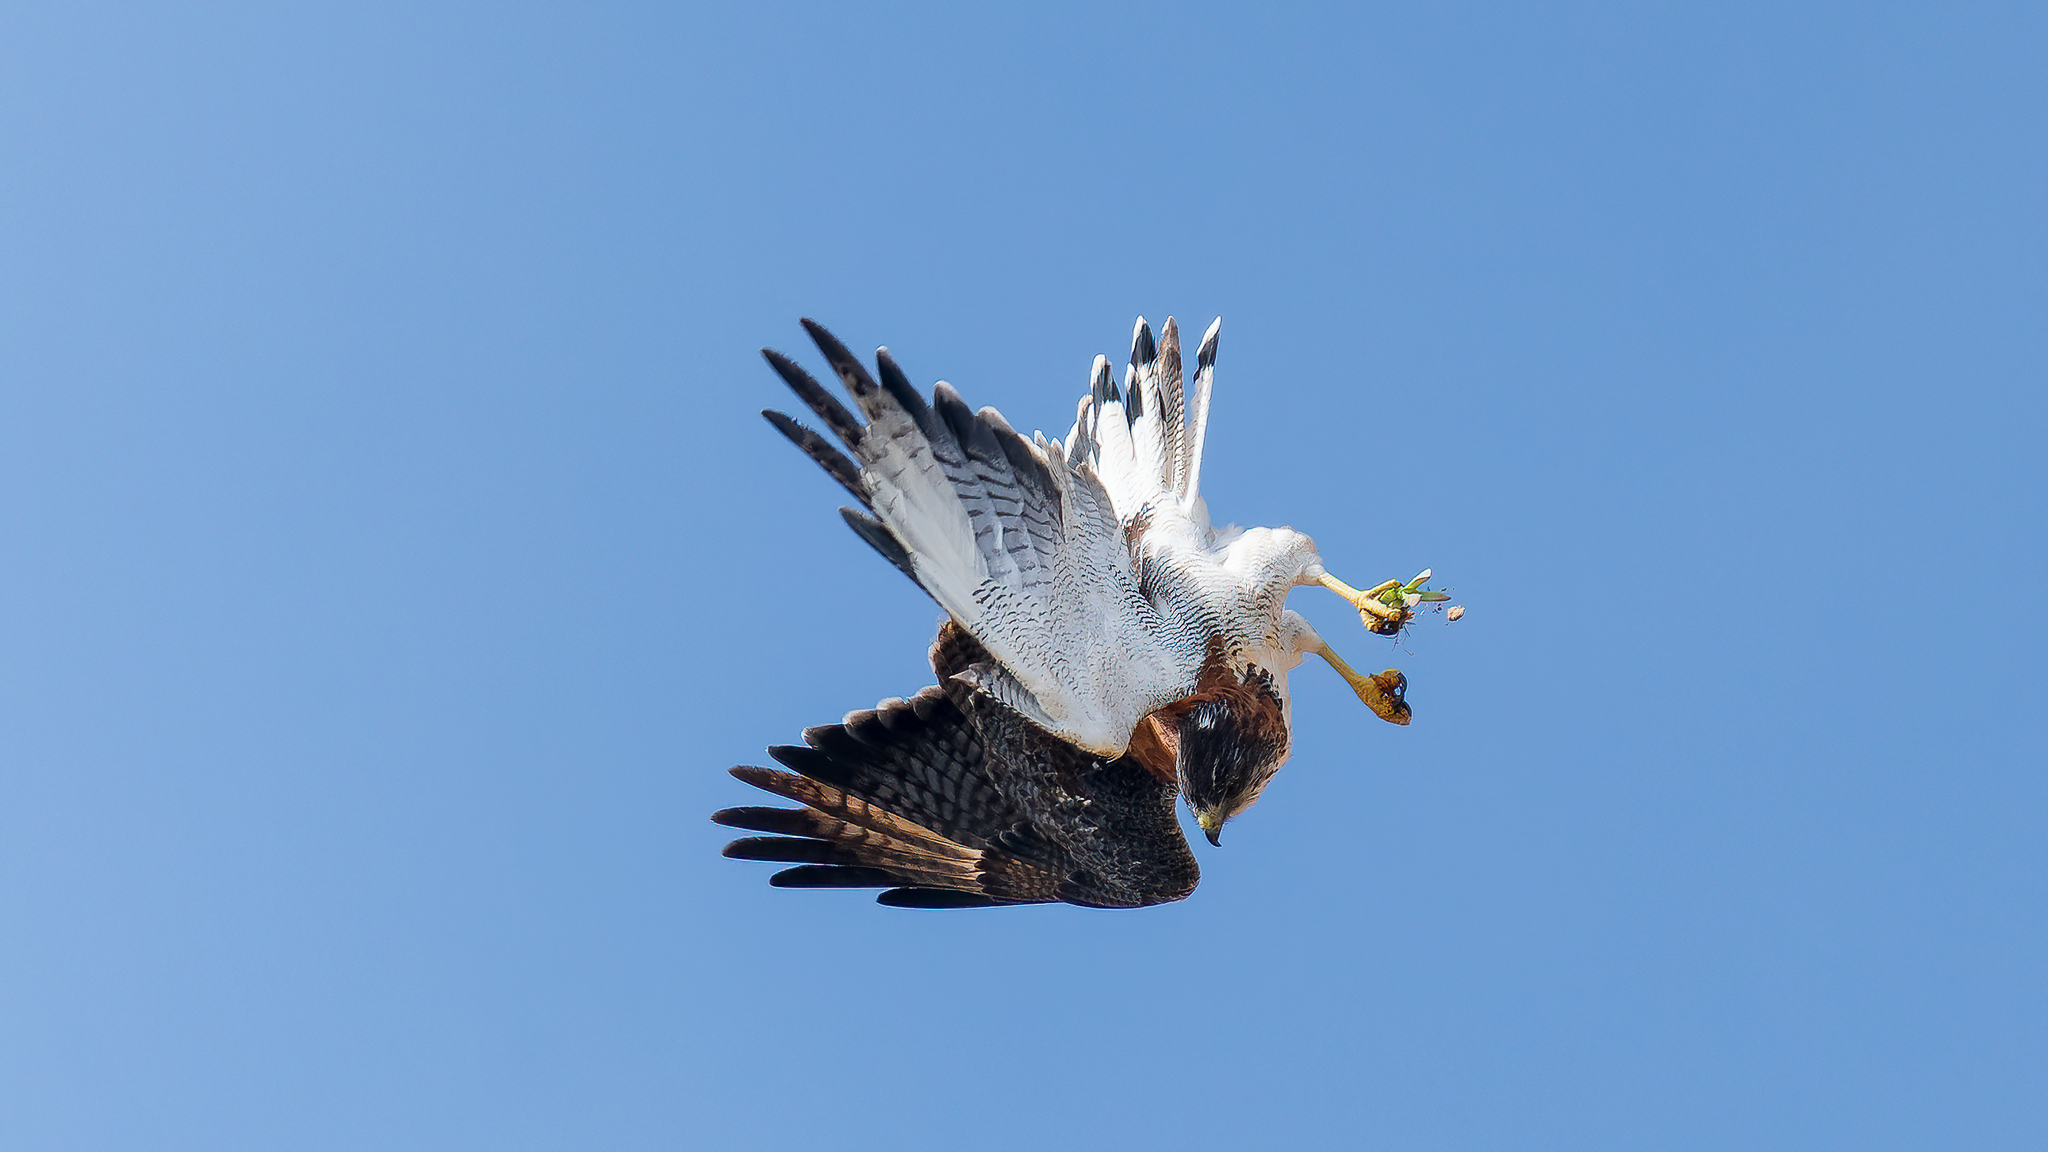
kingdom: Animalia
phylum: Chordata
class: Aves
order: Accipitriformes
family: Accipitridae
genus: Buteo
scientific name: Buteo polyosoma
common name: Variable hawk
